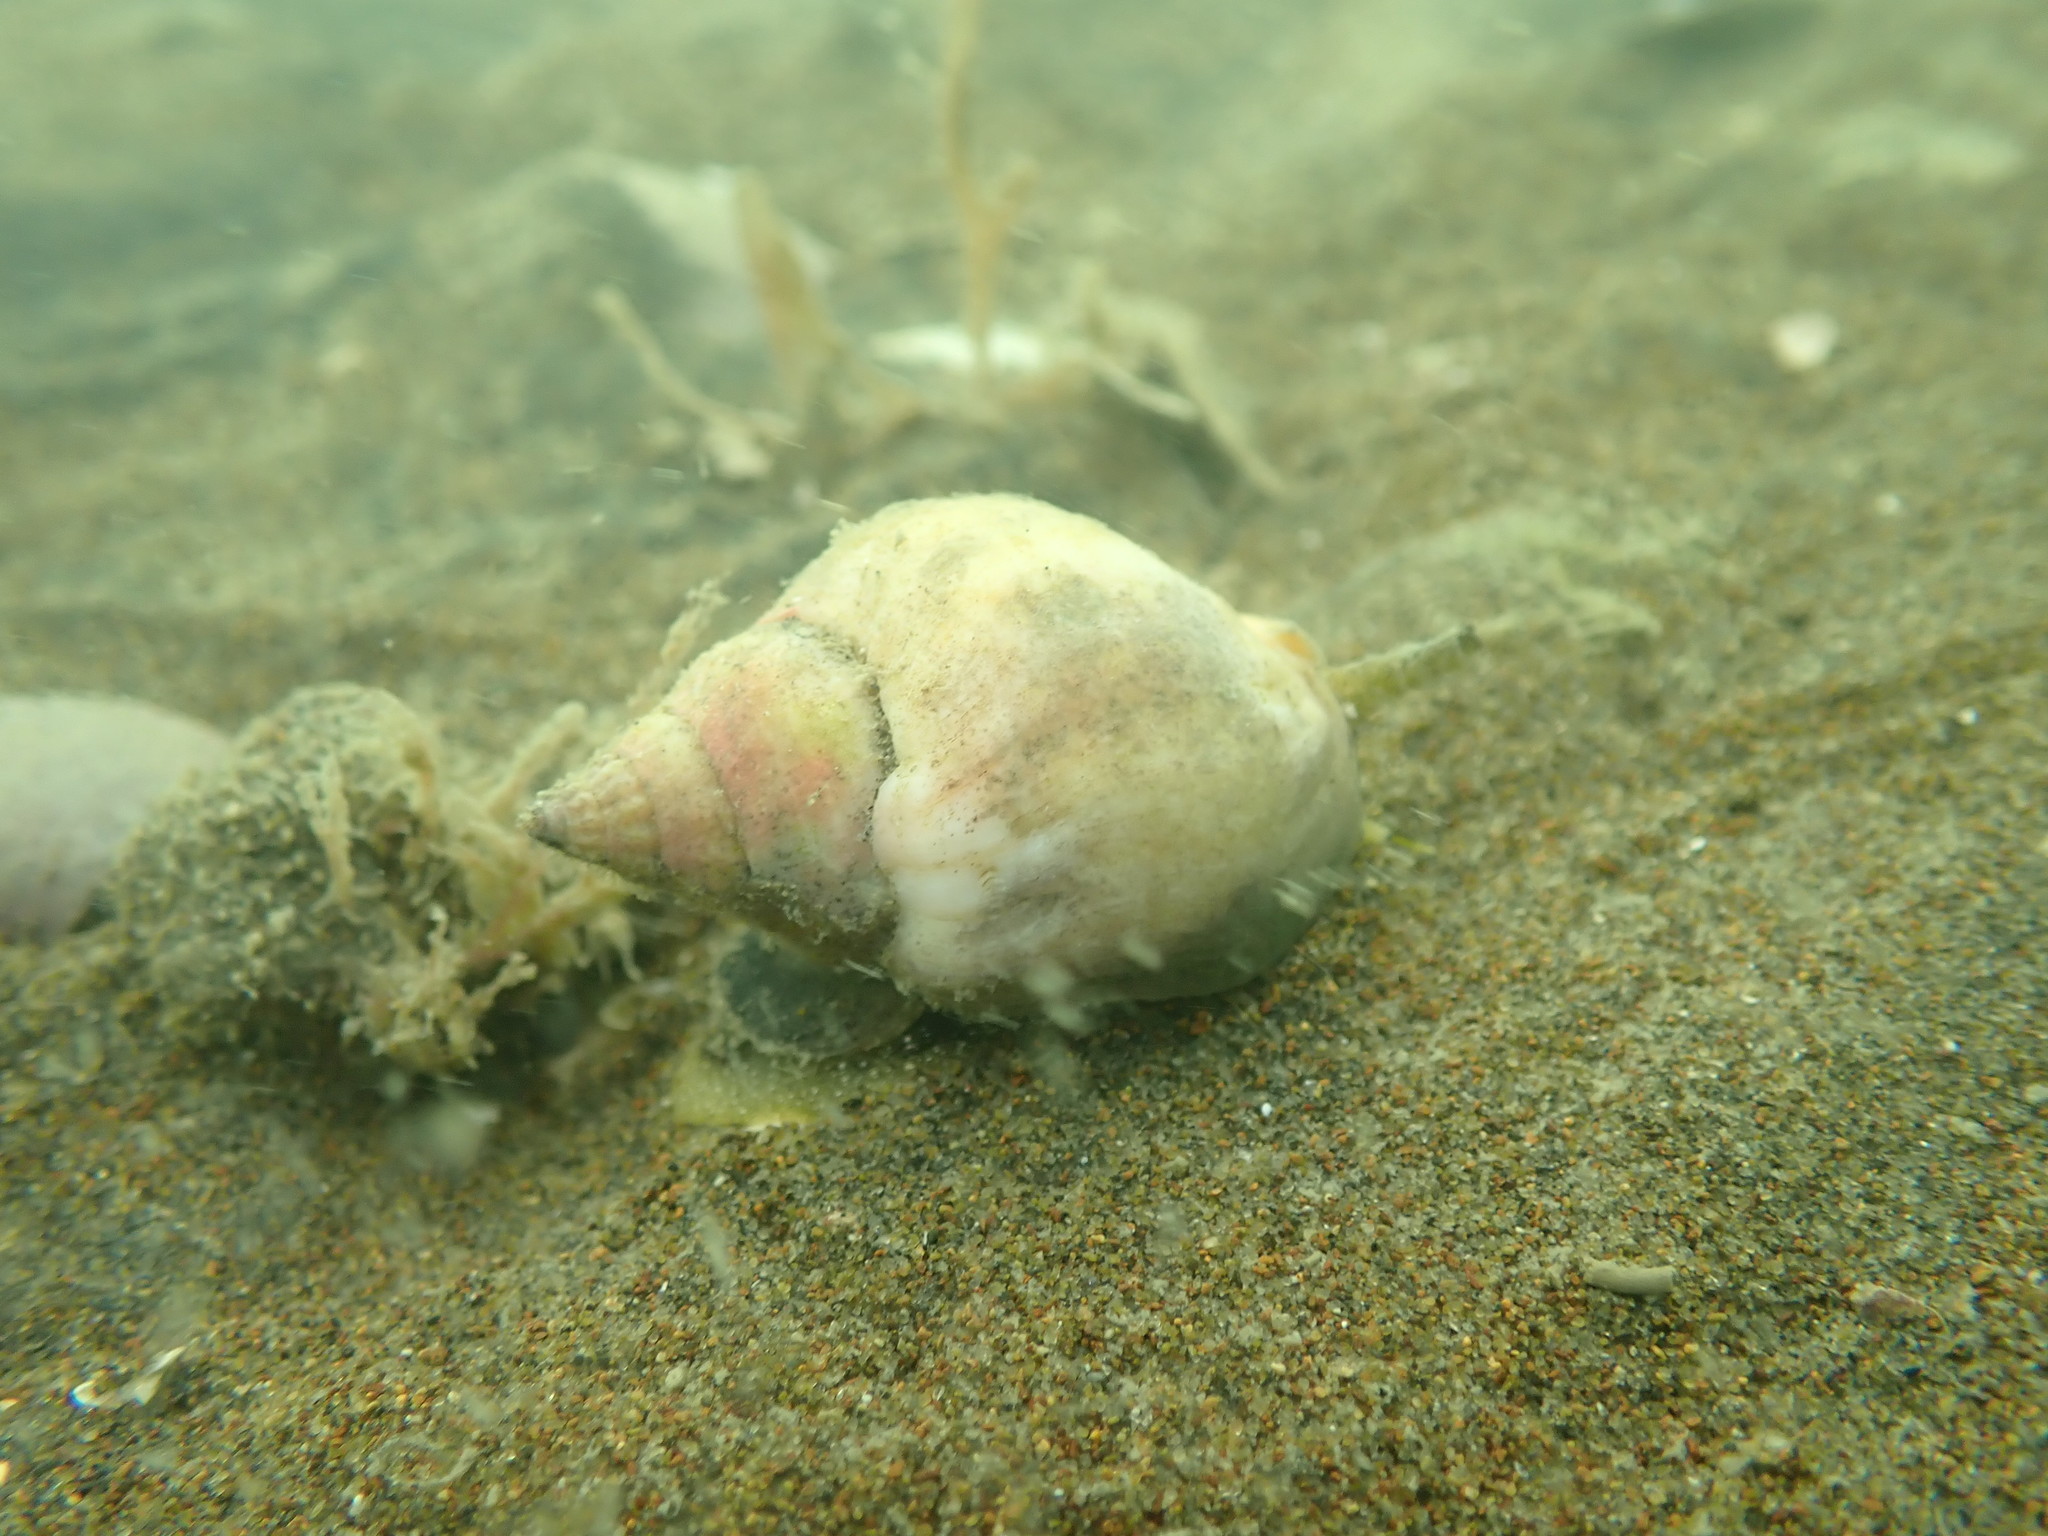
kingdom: Animalia
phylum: Mollusca
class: Gastropoda
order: Neogastropoda
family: Cominellidae
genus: Cominella
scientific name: Cominella adspersa
